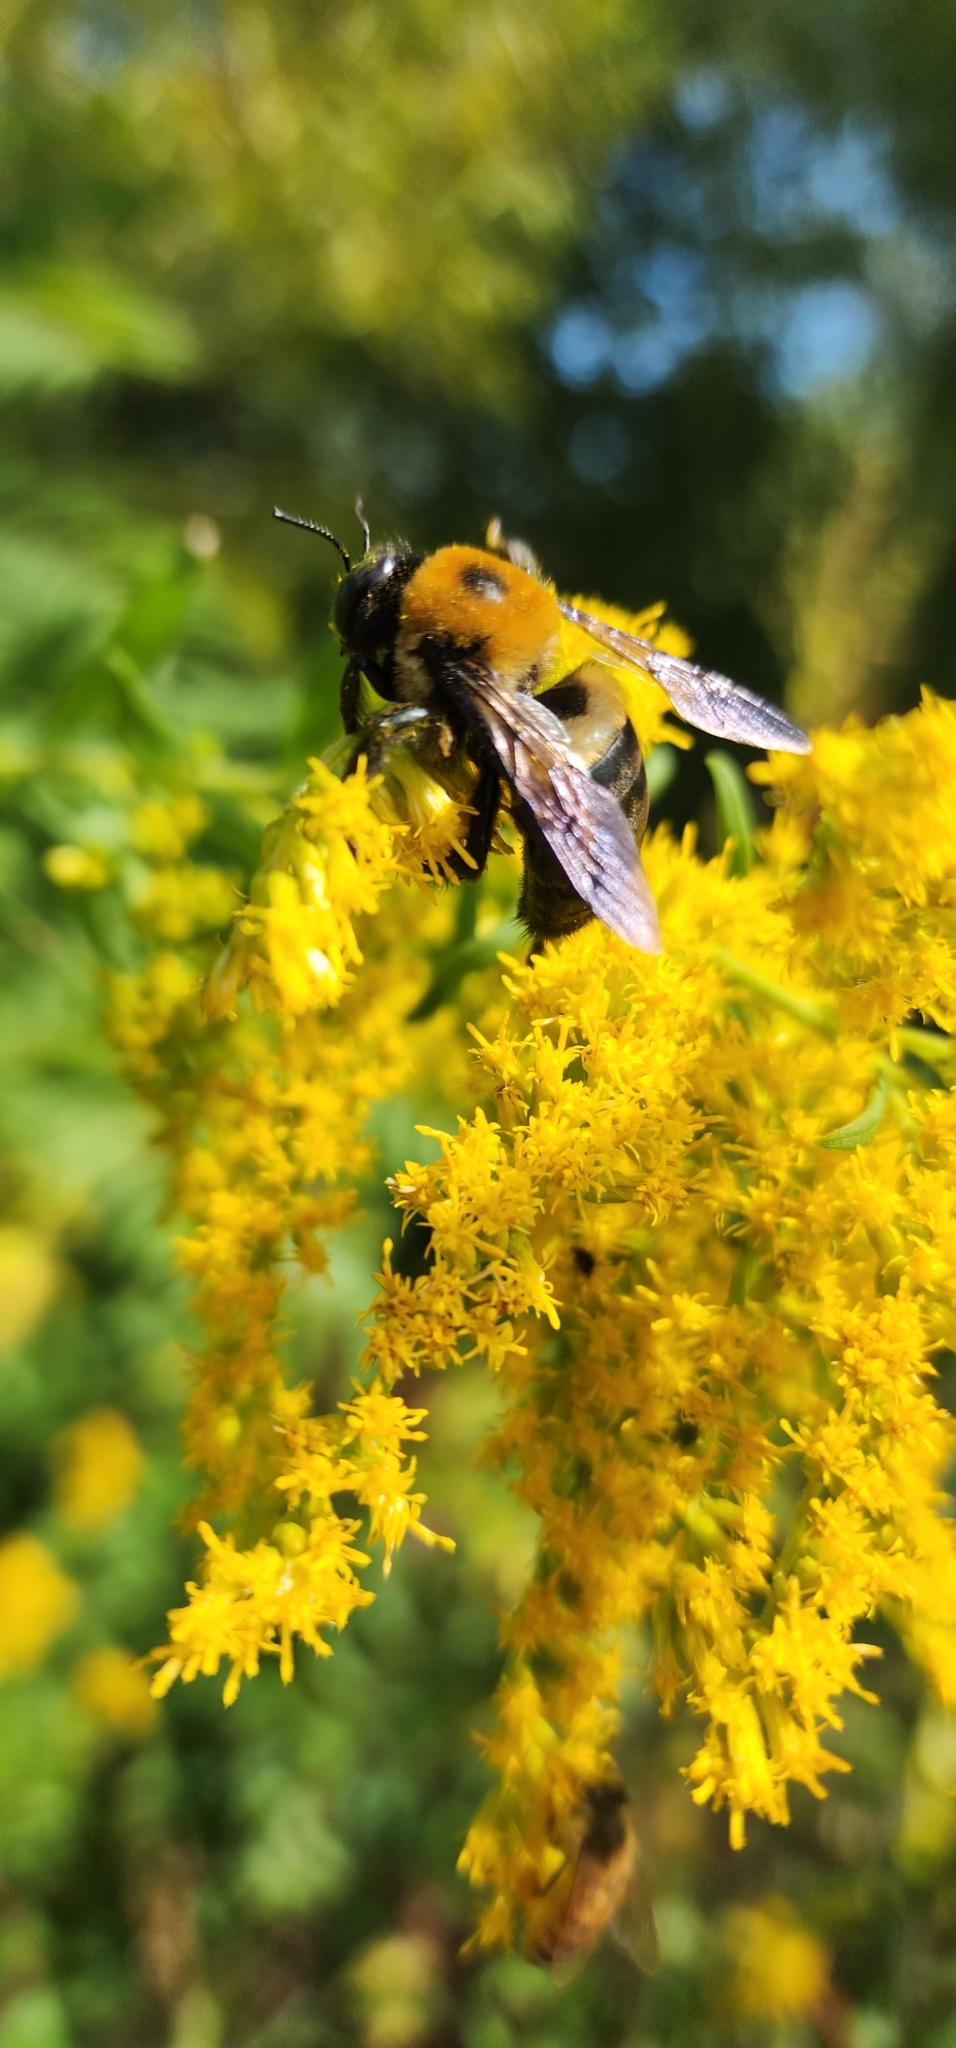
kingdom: Animalia
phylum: Arthropoda
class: Insecta
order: Hymenoptera
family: Apidae
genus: Xylocopa
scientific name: Xylocopa virginica
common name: Carpenter bee
